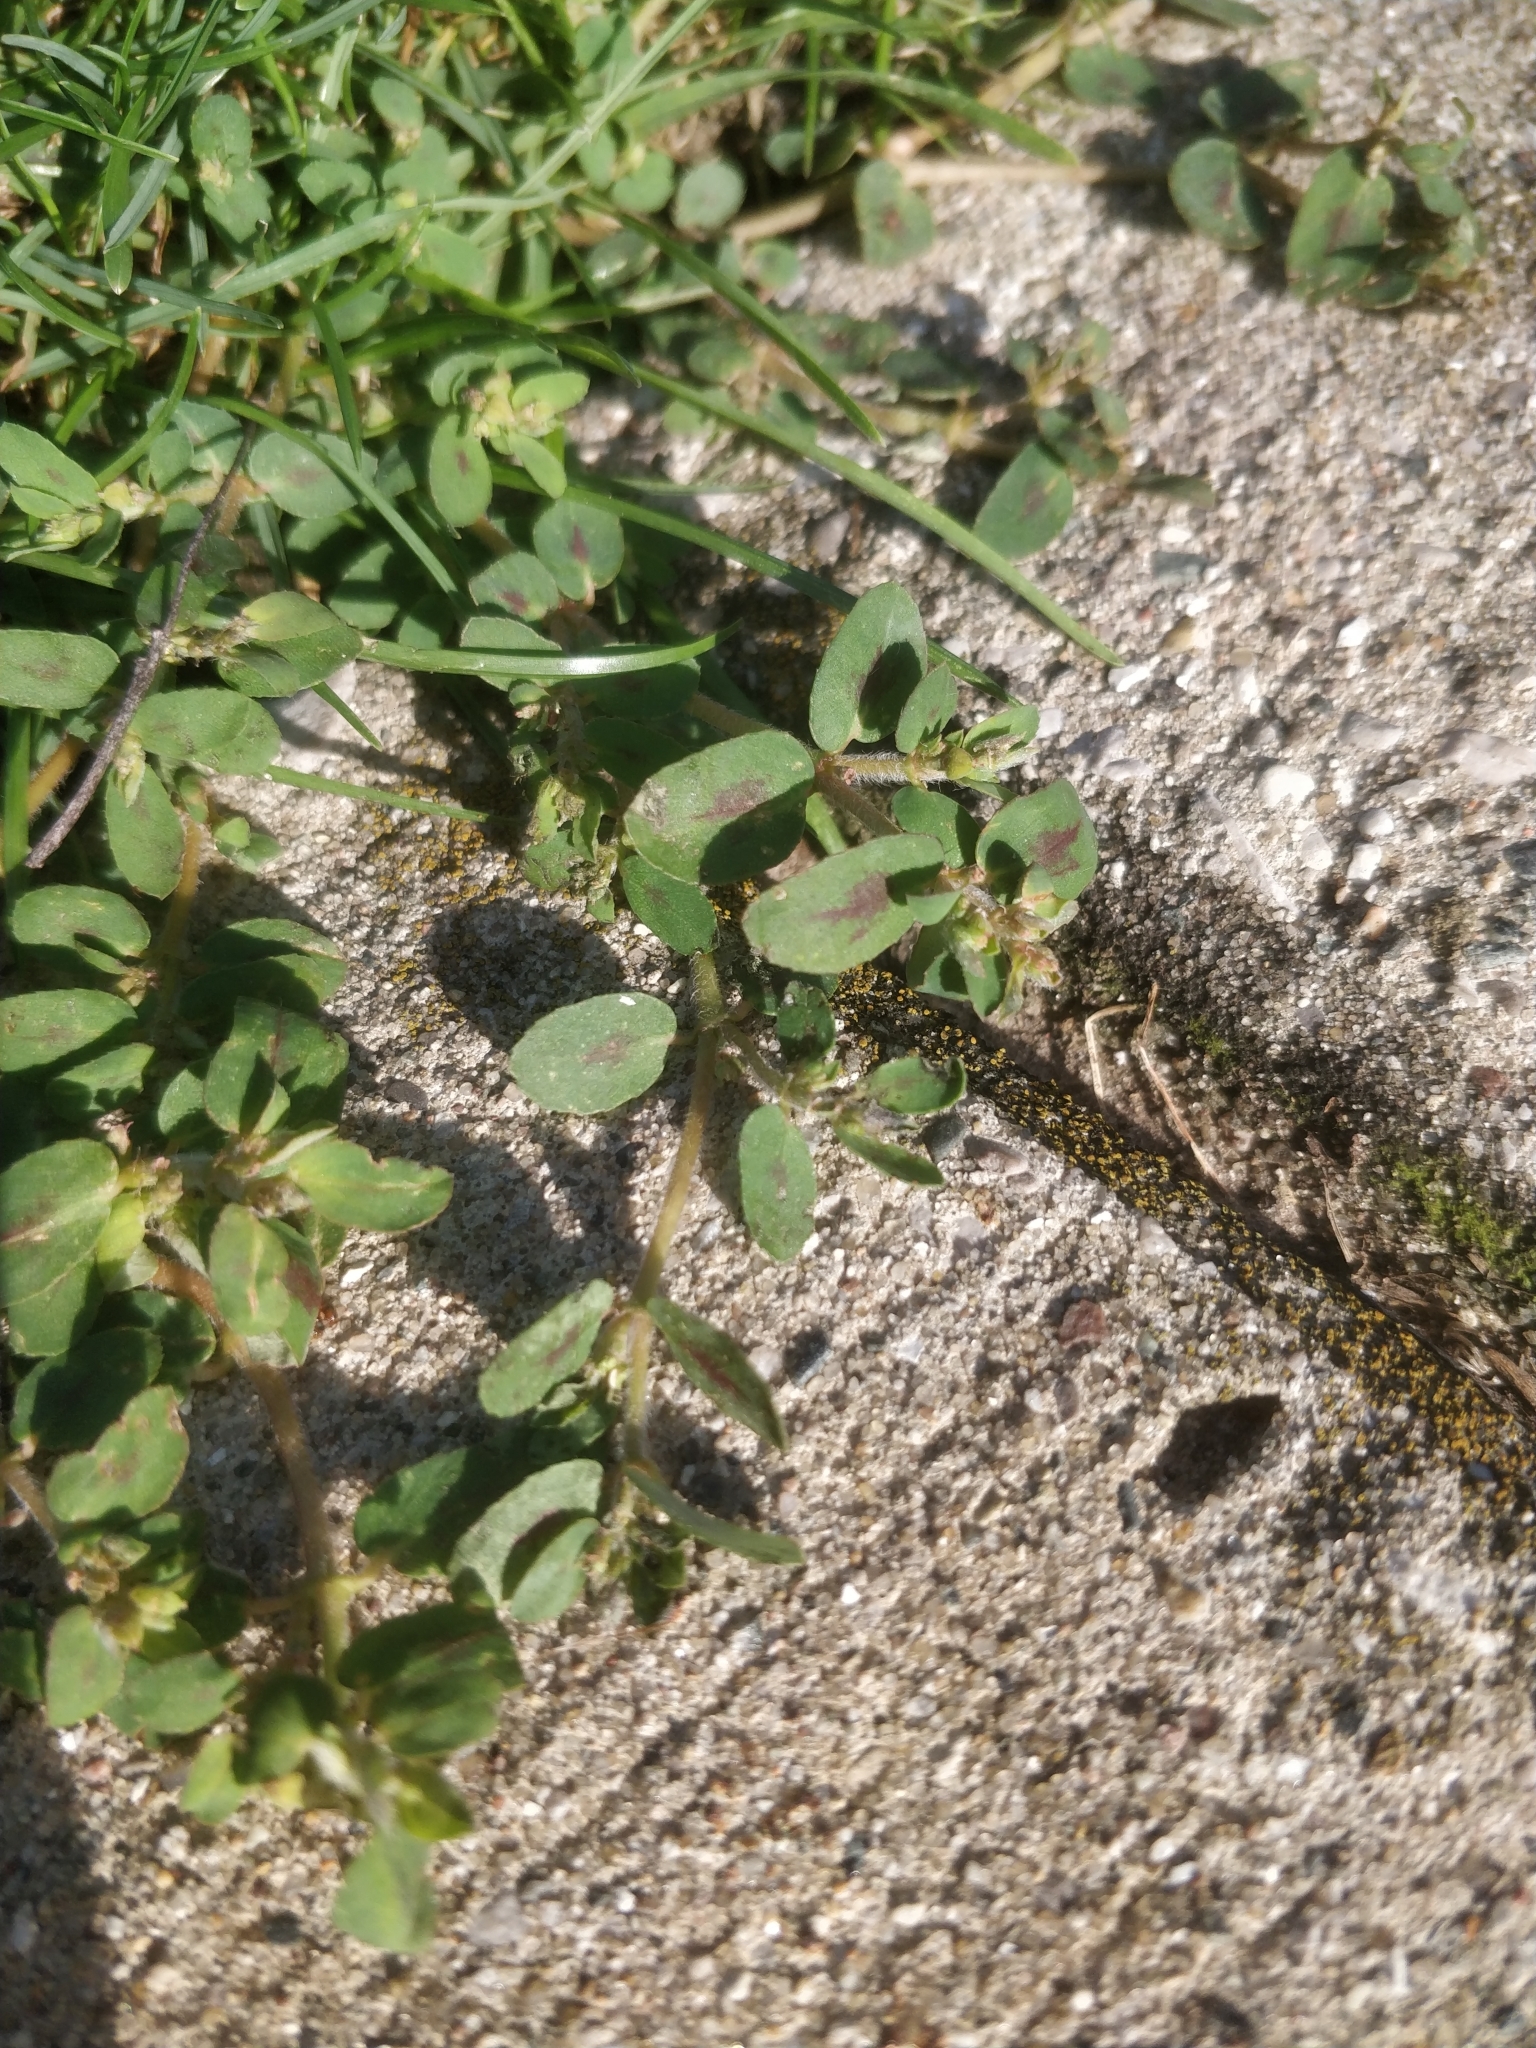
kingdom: Plantae
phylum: Tracheophyta
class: Magnoliopsida
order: Malpighiales
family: Euphorbiaceae
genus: Euphorbia
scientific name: Euphorbia maculata
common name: Spotted spurge
